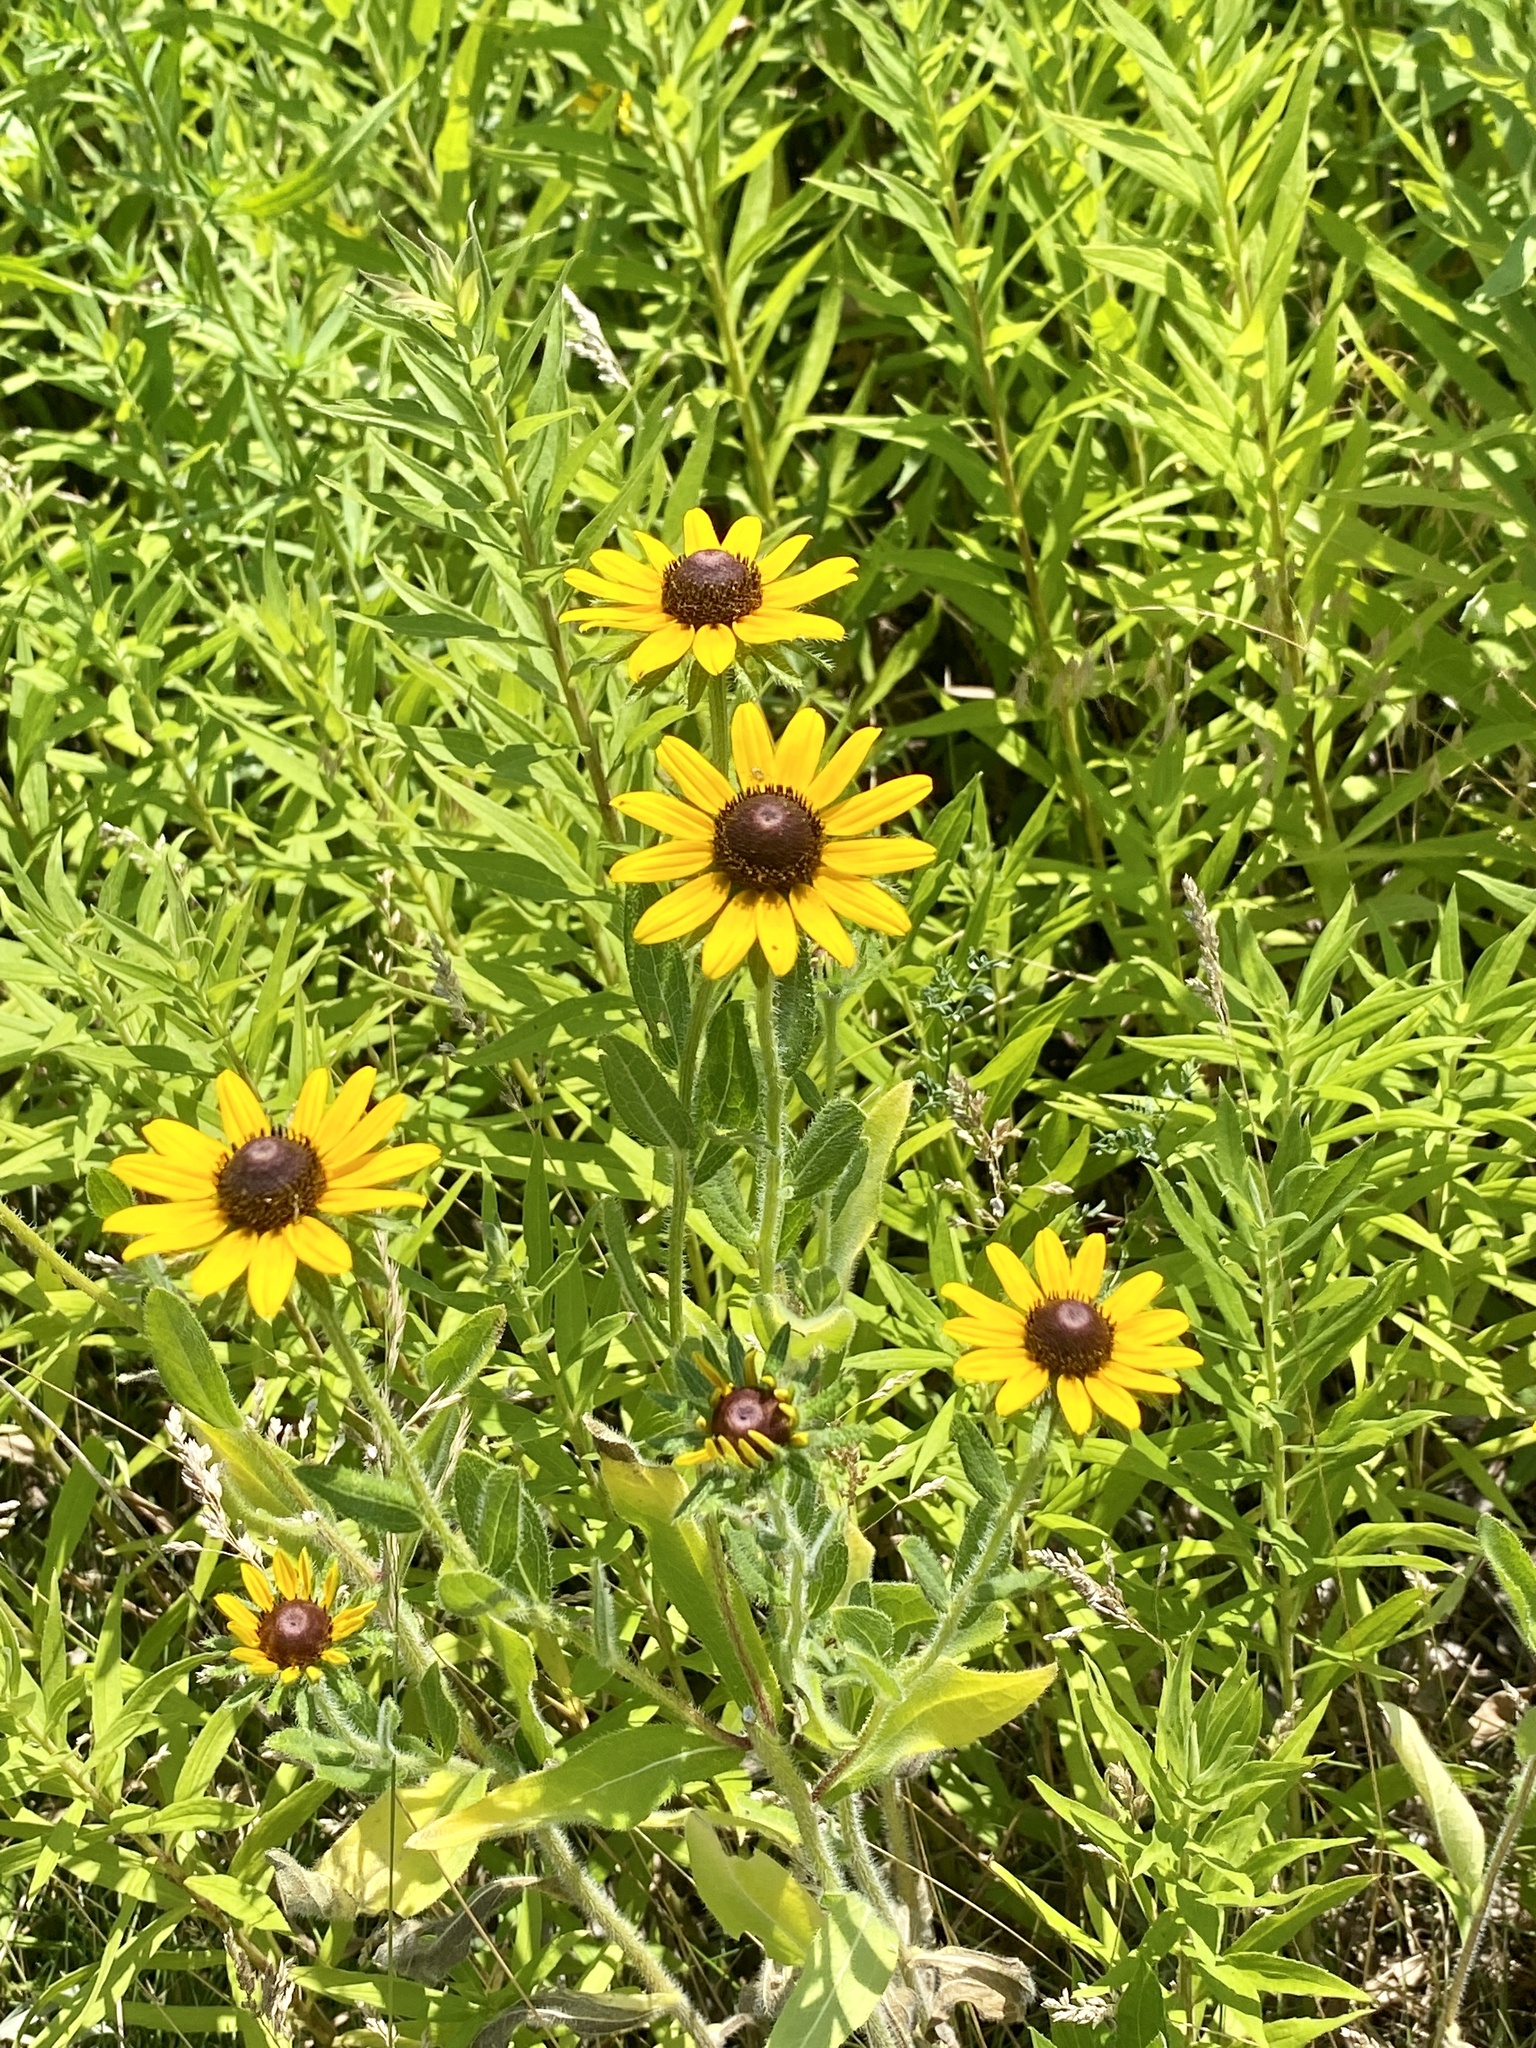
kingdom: Plantae
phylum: Tracheophyta
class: Magnoliopsida
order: Asterales
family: Asteraceae
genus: Rudbeckia
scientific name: Rudbeckia hirta
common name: Black-eyed-susan
